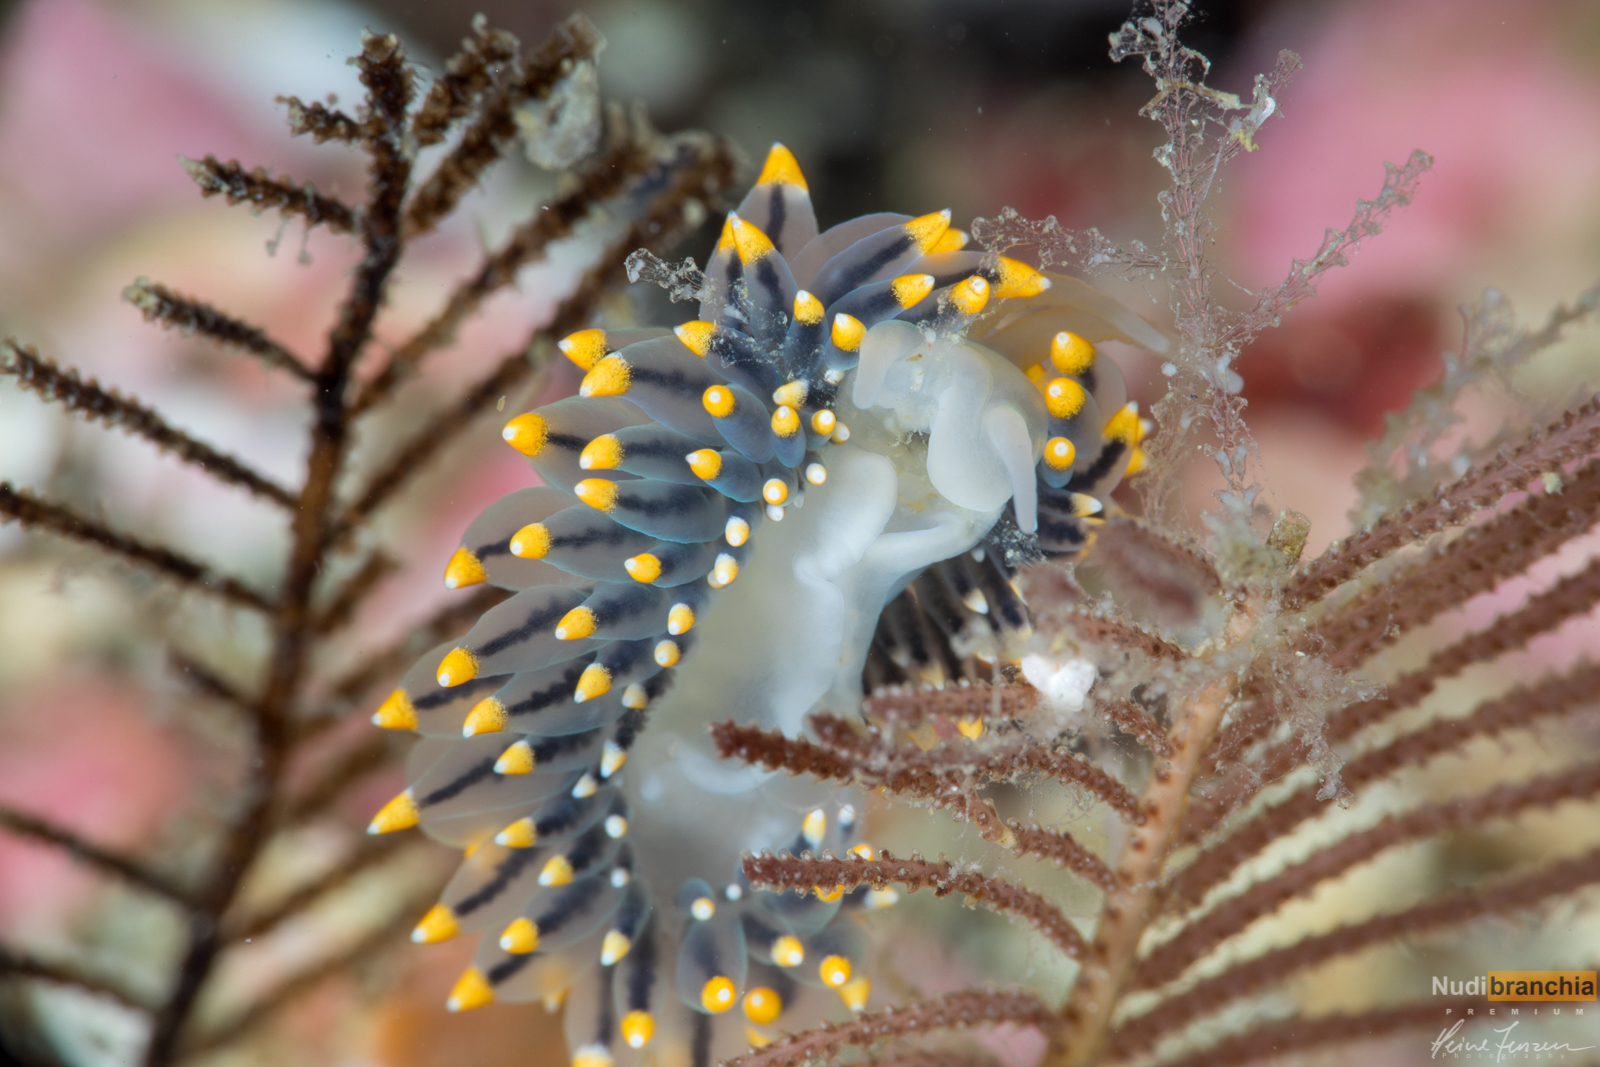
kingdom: Animalia
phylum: Mollusca
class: Gastropoda
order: Nudibranchia
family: Eubranchidae
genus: Eubranchus
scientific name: Eubranchus tricolor
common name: Painted balloon aeolis
